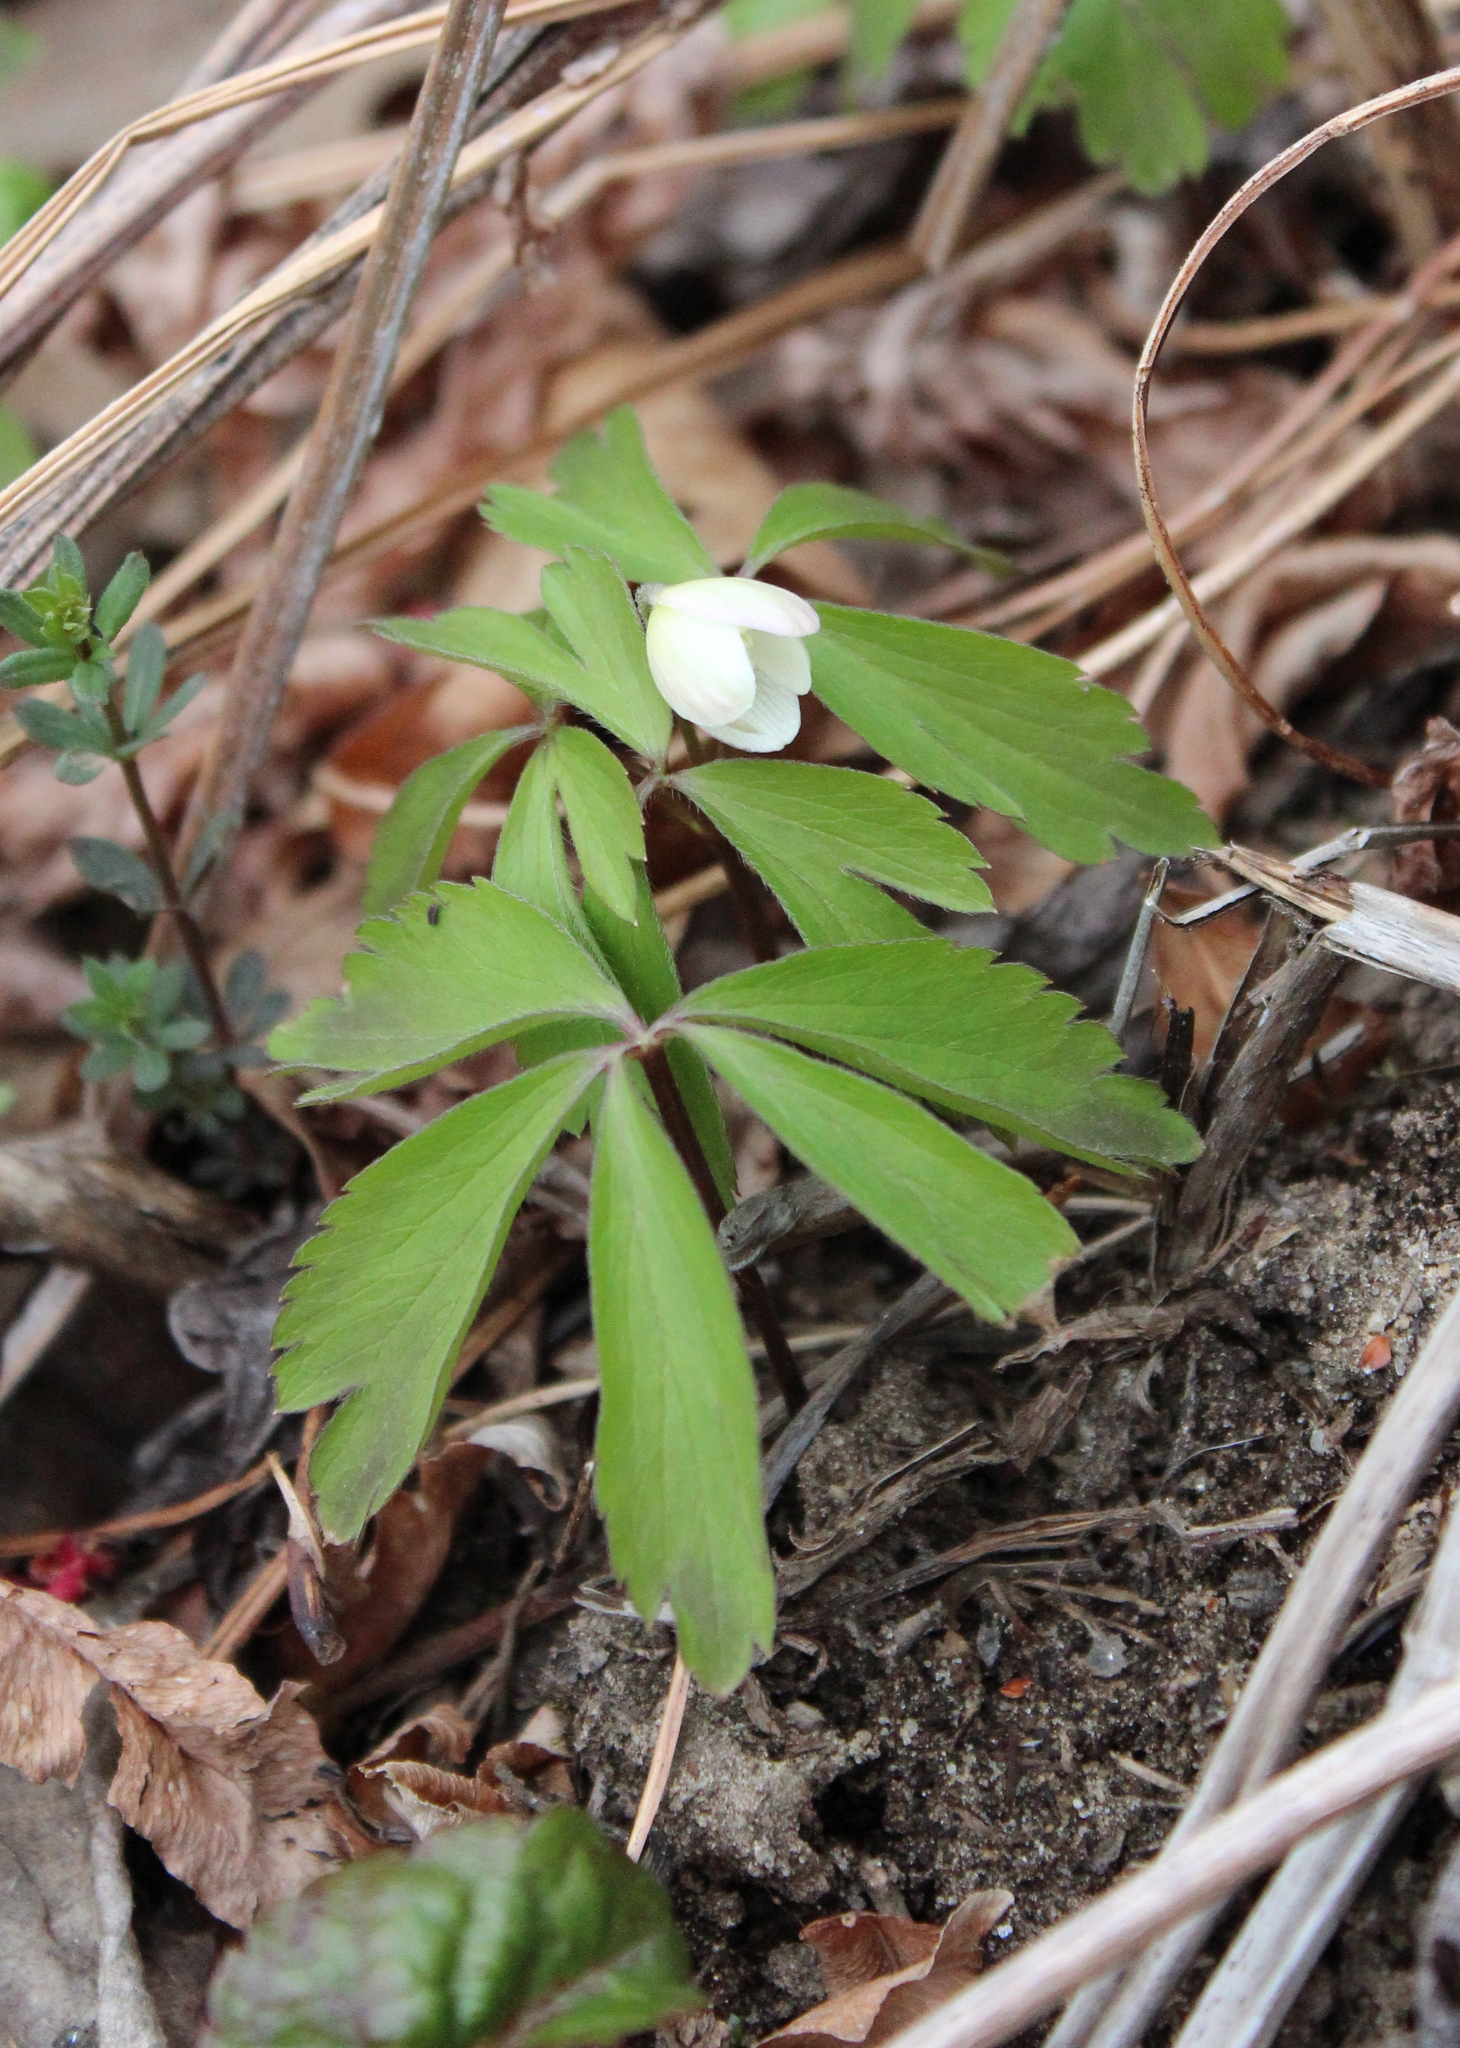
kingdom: Plantae
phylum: Tracheophyta
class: Magnoliopsida
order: Ranunculales
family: Ranunculaceae
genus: Anemone
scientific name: Anemone quinquefolia
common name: Wood anemone
